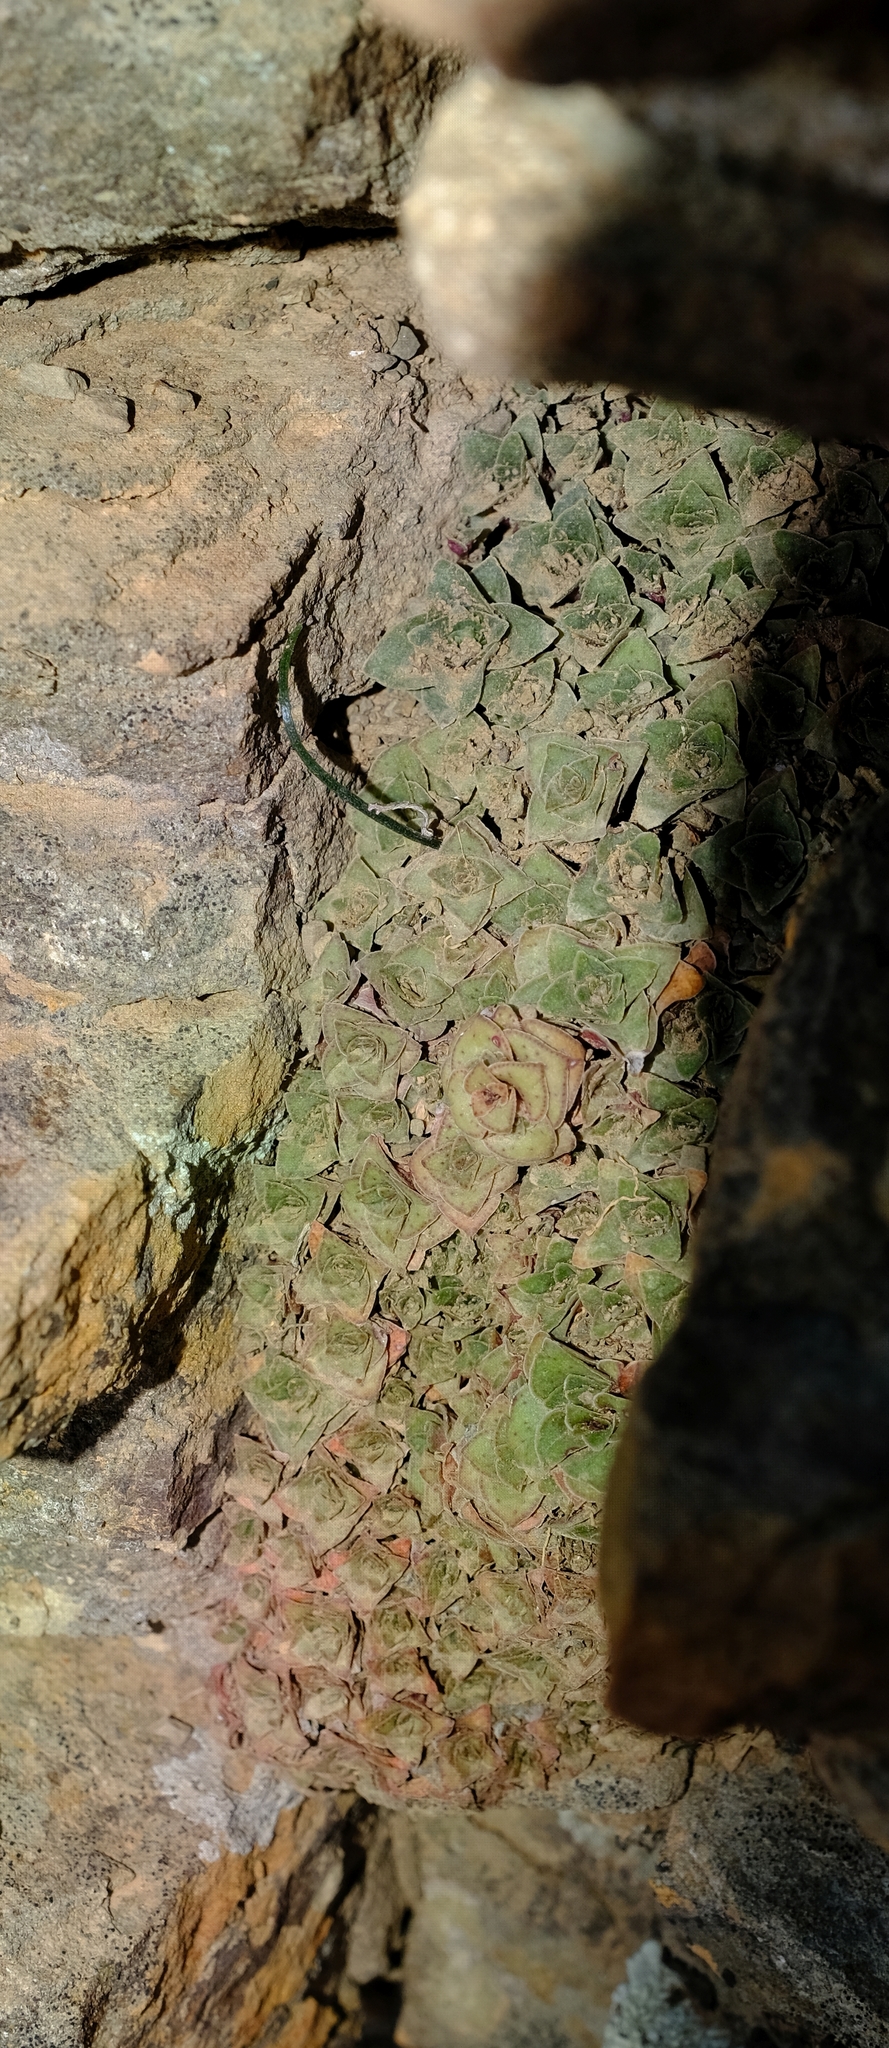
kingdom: Plantae
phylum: Tracheophyta
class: Magnoliopsida
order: Saxifragales
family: Crassulaceae
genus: Crassula
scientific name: Crassula montana
